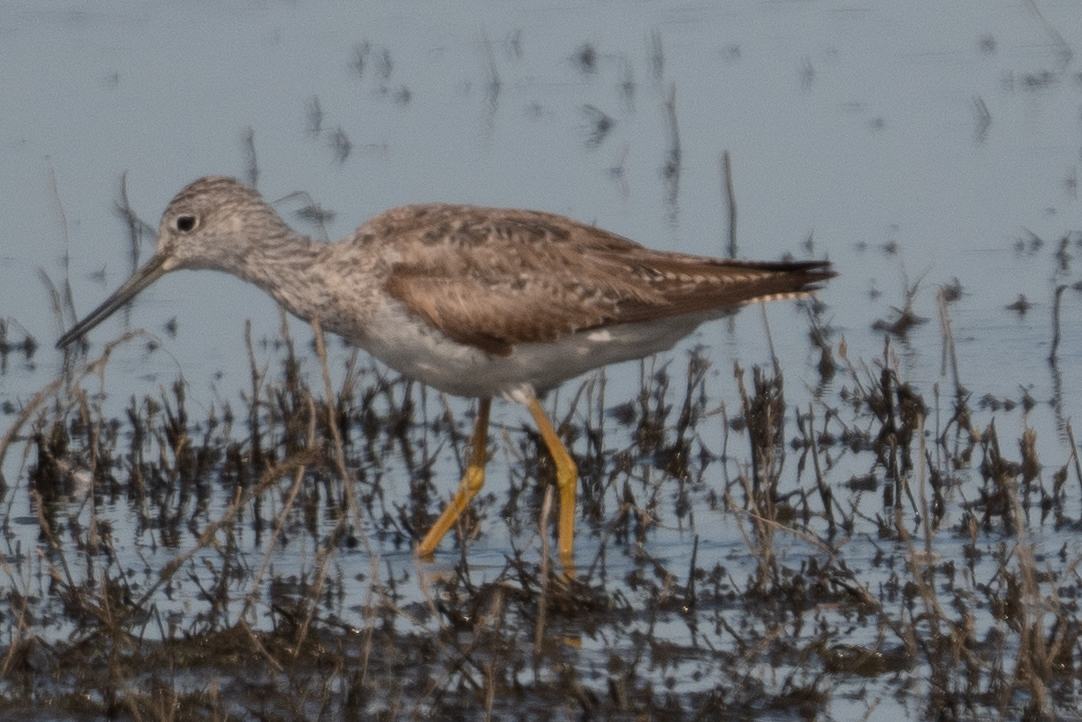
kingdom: Animalia
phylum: Chordata
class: Aves
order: Charadriiformes
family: Scolopacidae
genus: Tringa
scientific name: Tringa melanoleuca
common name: Greater yellowlegs
